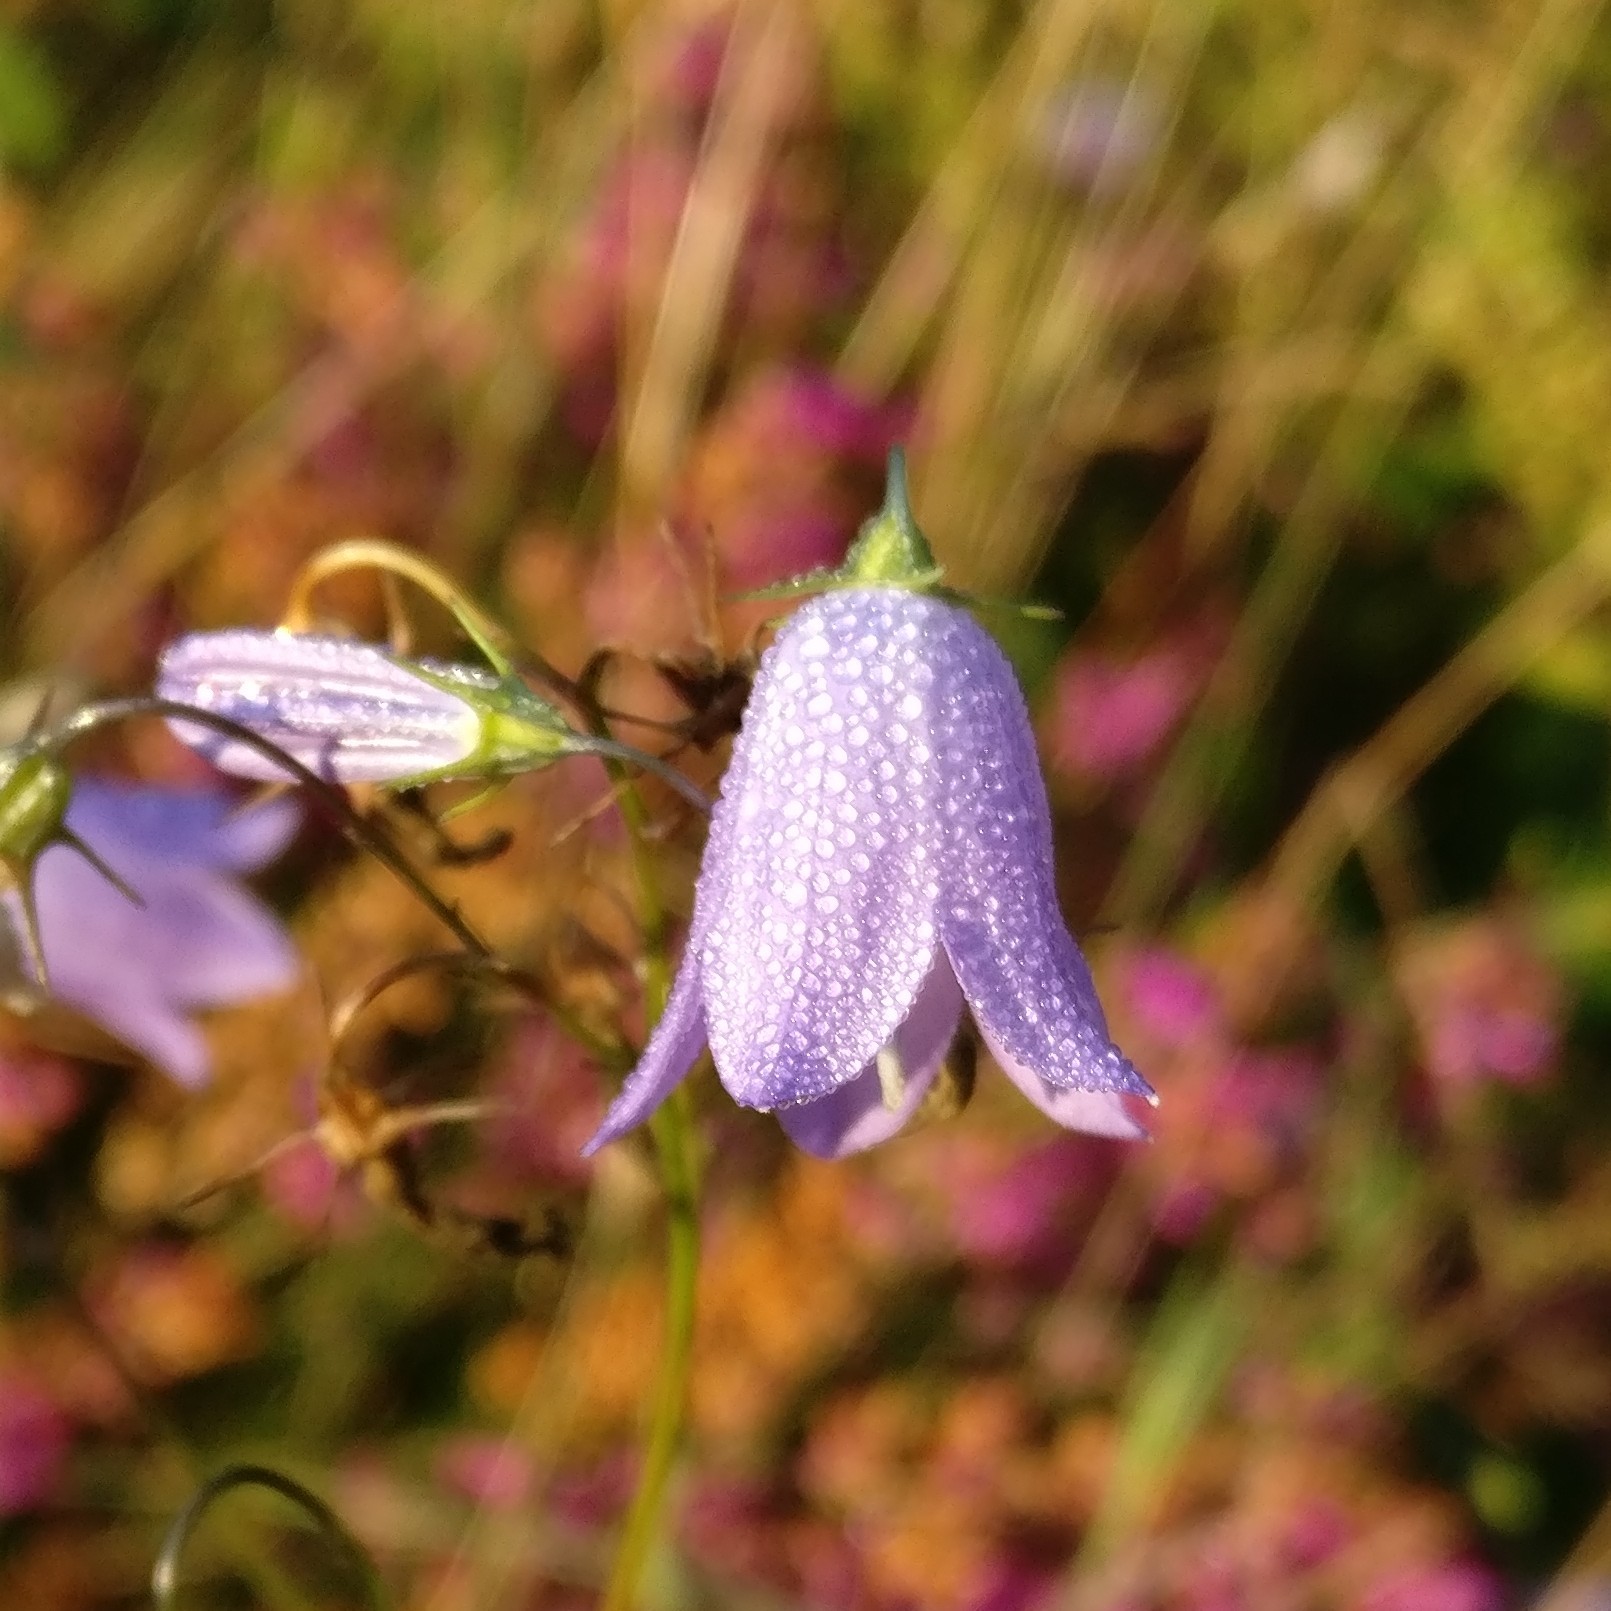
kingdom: Plantae
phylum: Tracheophyta
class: Magnoliopsida
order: Asterales
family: Campanulaceae
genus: Campanula
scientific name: Campanula rotundifolia
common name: Harebell
